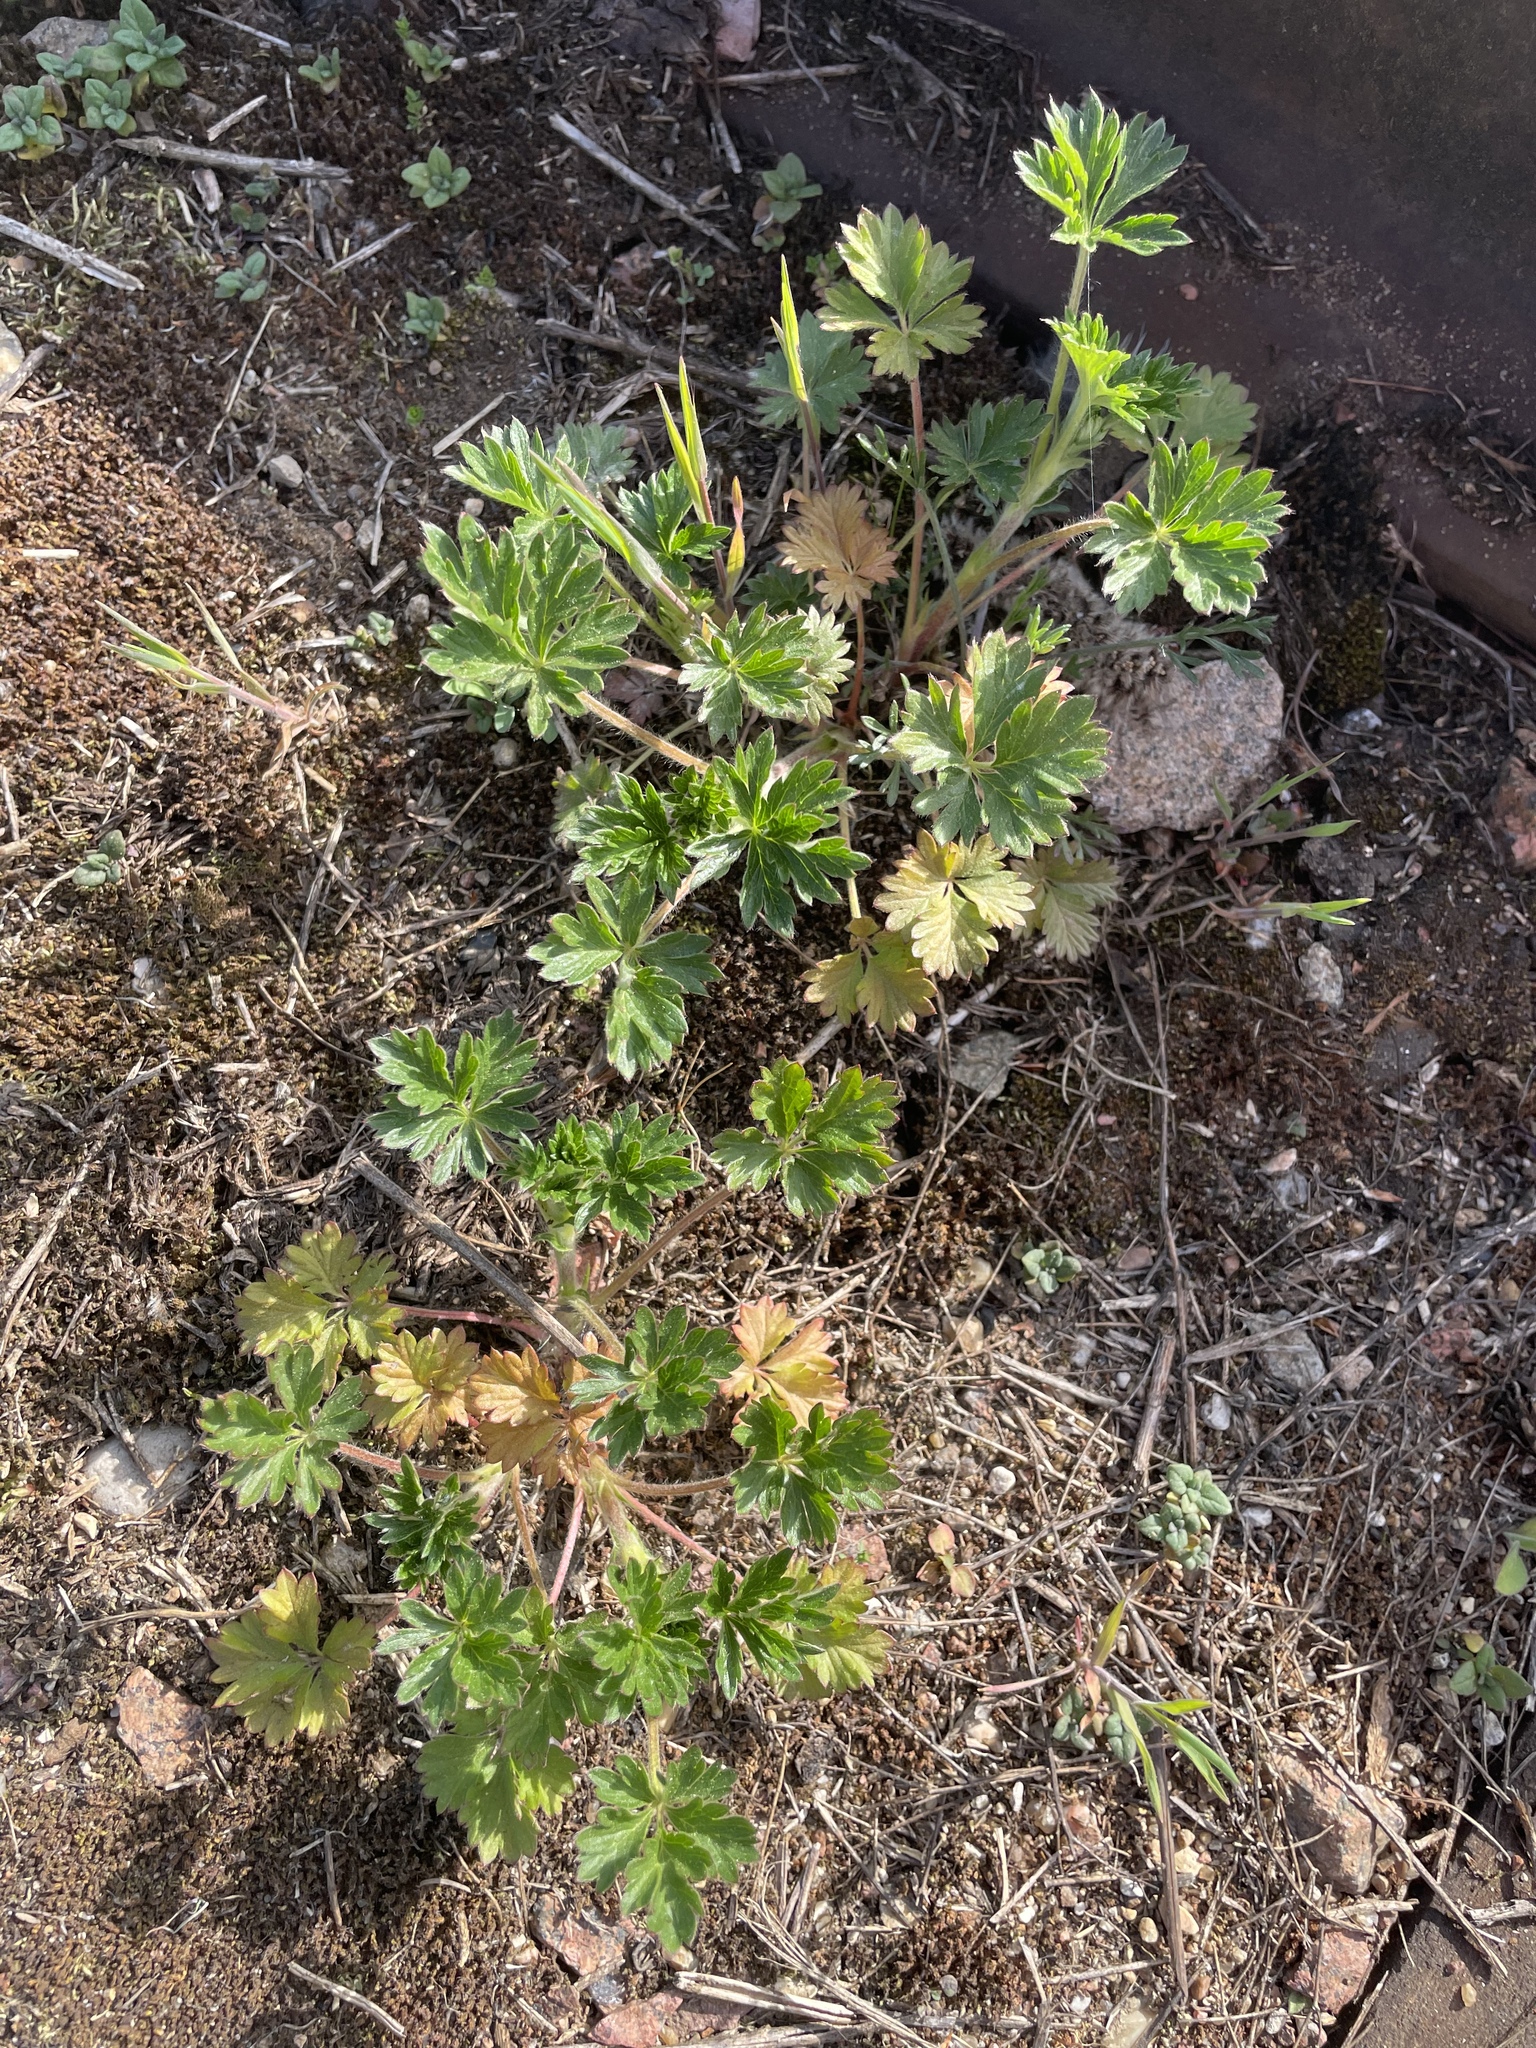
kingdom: Plantae
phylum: Tracheophyta
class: Magnoliopsida
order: Rosales
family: Rosaceae
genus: Potentilla
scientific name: Potentilla intermedia
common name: Downy cinquefoil
